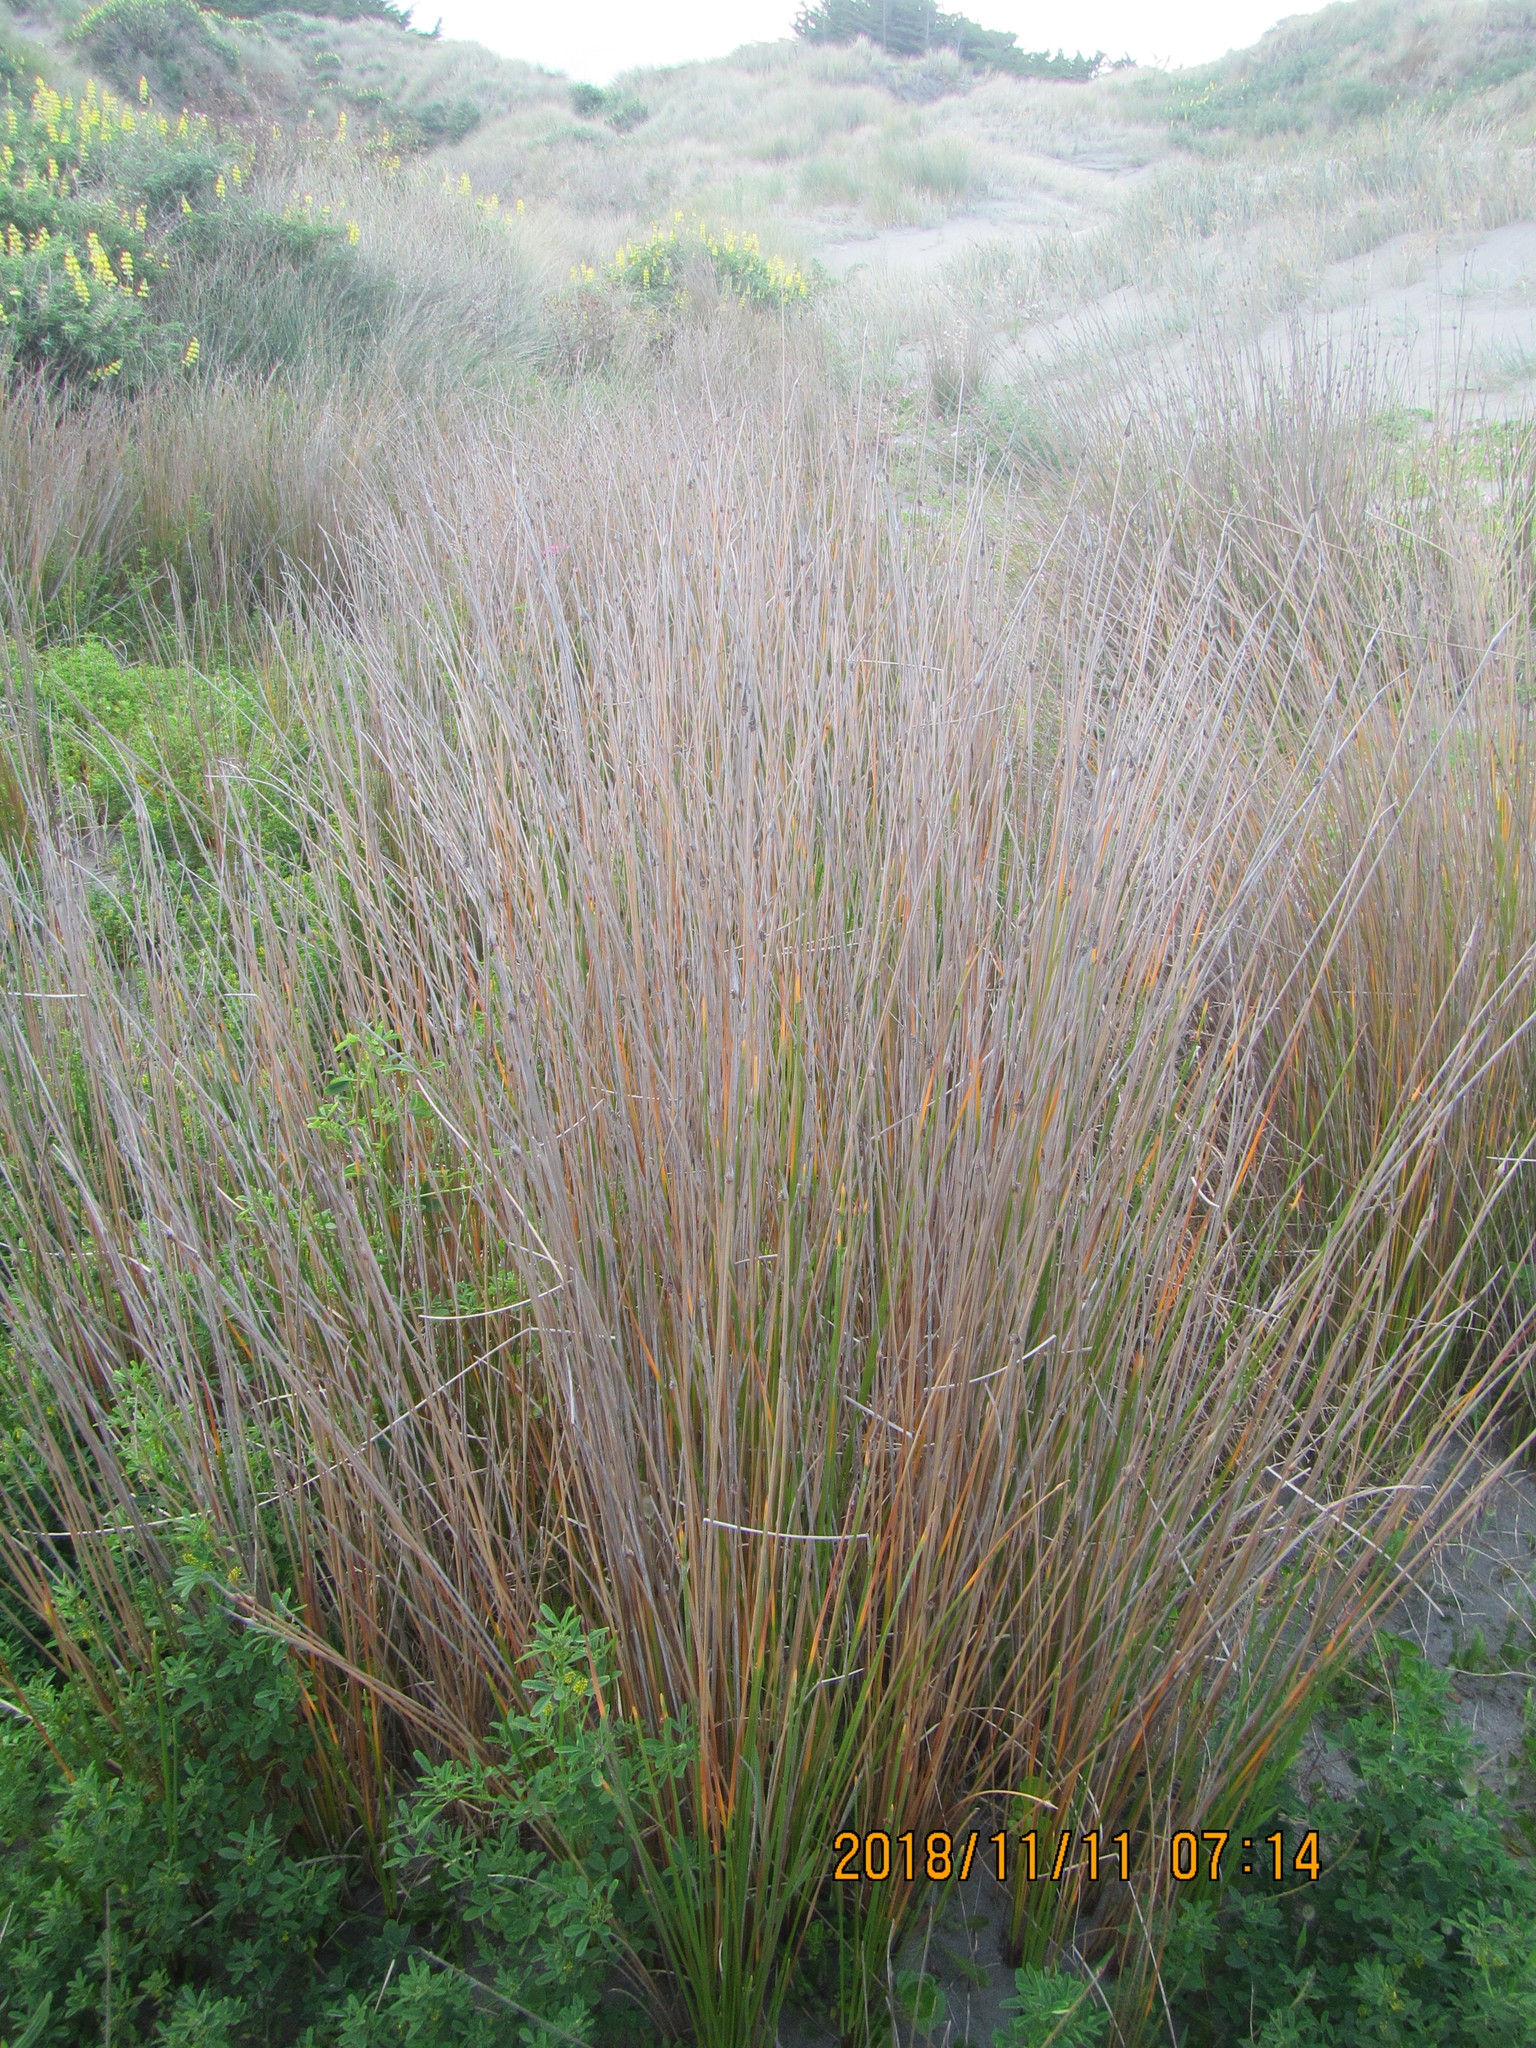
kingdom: Plantae
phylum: Tracheophyta
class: Liliopsida
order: Poales
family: Cyperaceae
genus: Ficinia
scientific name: Ficinia nodosa
